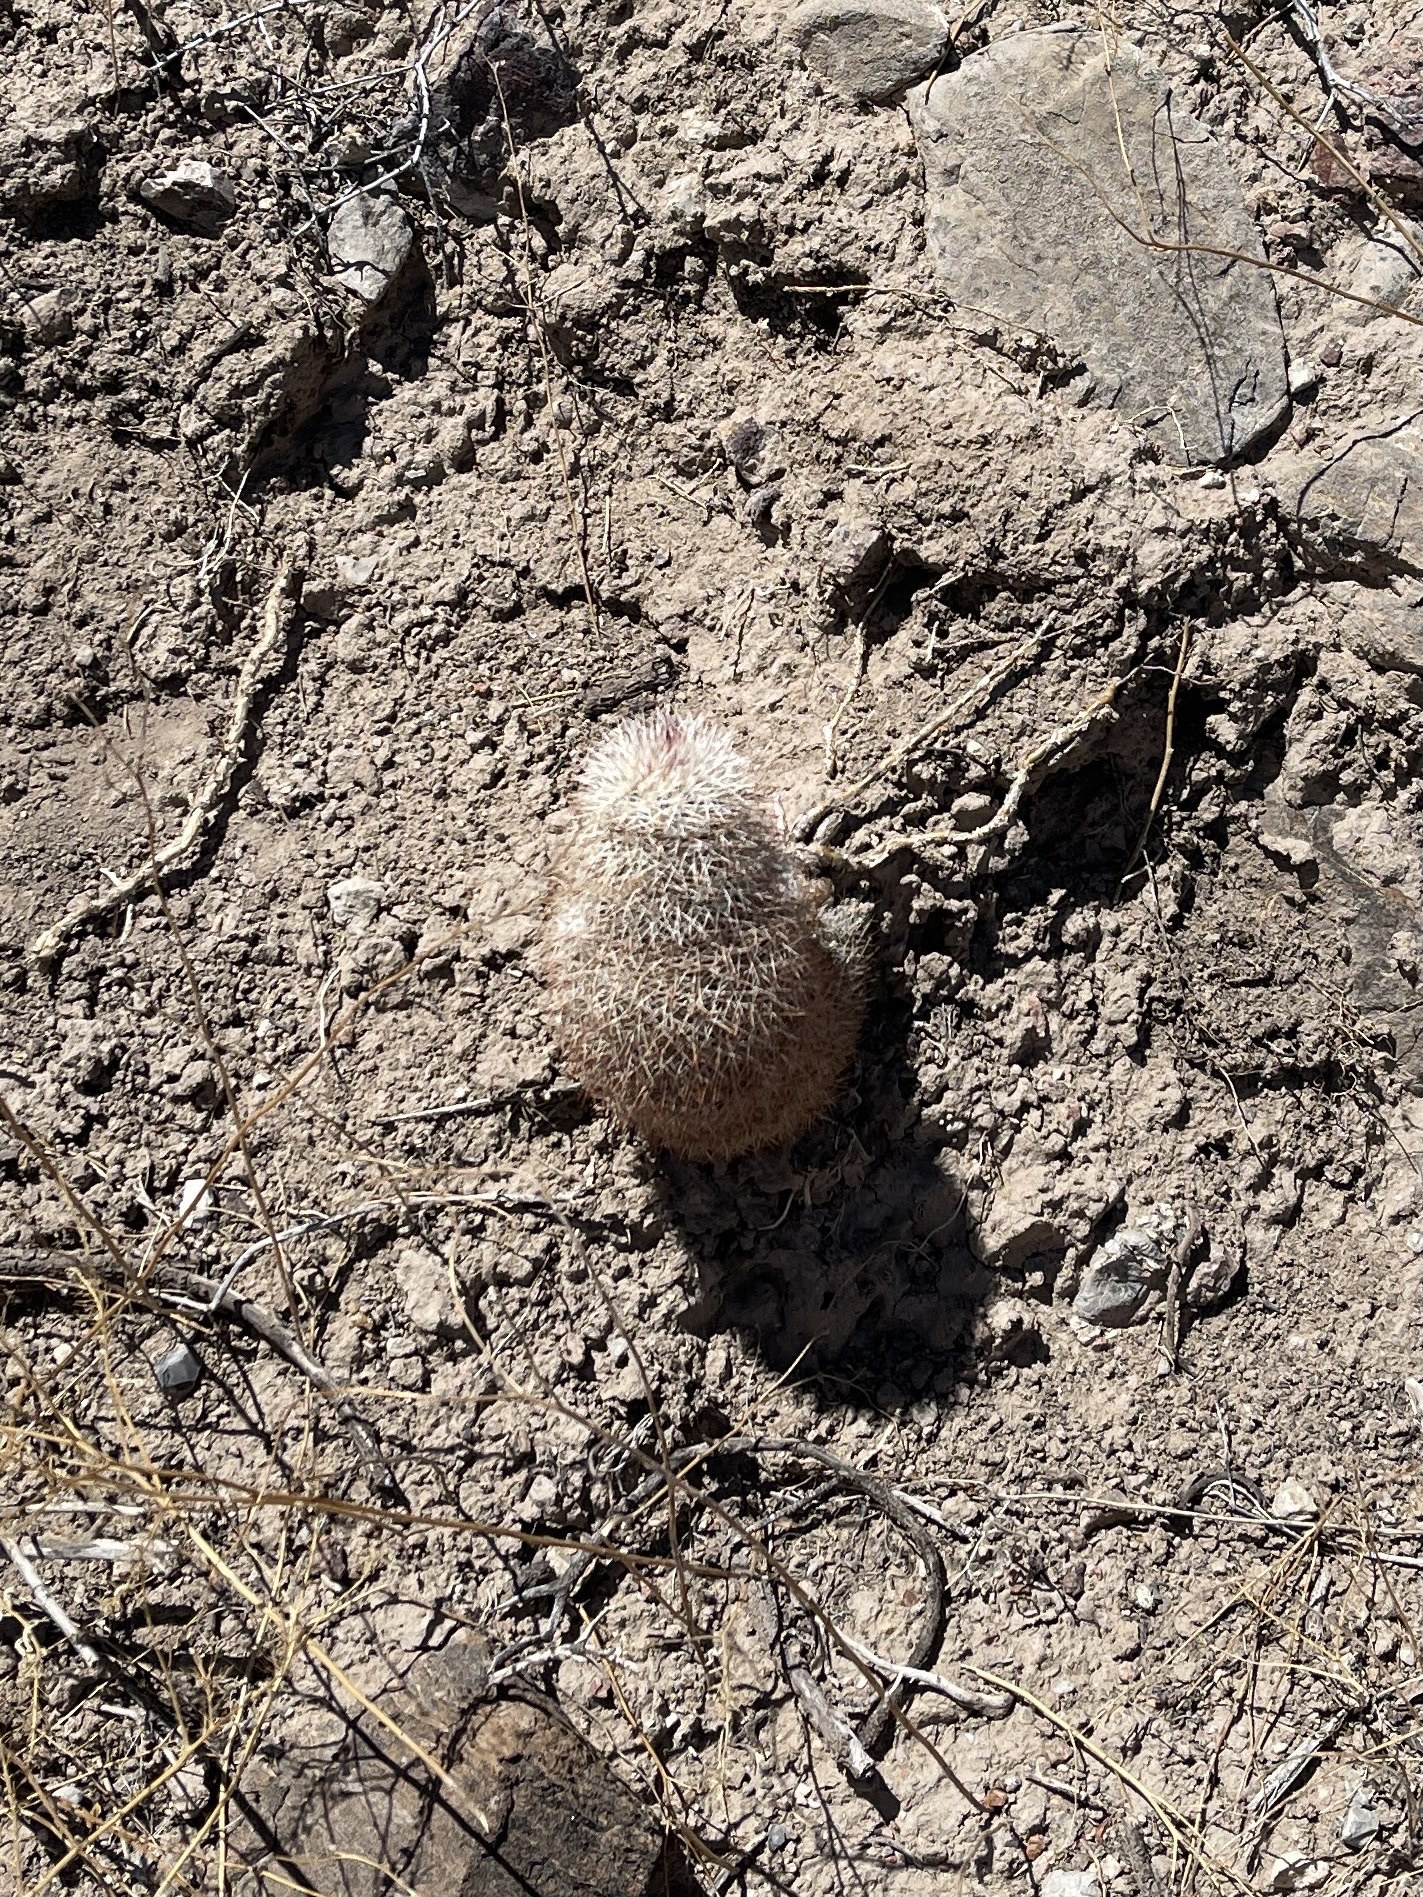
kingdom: Plantae
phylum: Tracheophyta
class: Magnoliopsida
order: Caryophyllales
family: Cactaceae
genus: Echinocereus
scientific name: Echinocereus dasyacanthus
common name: Spiny hedgehog cactus
